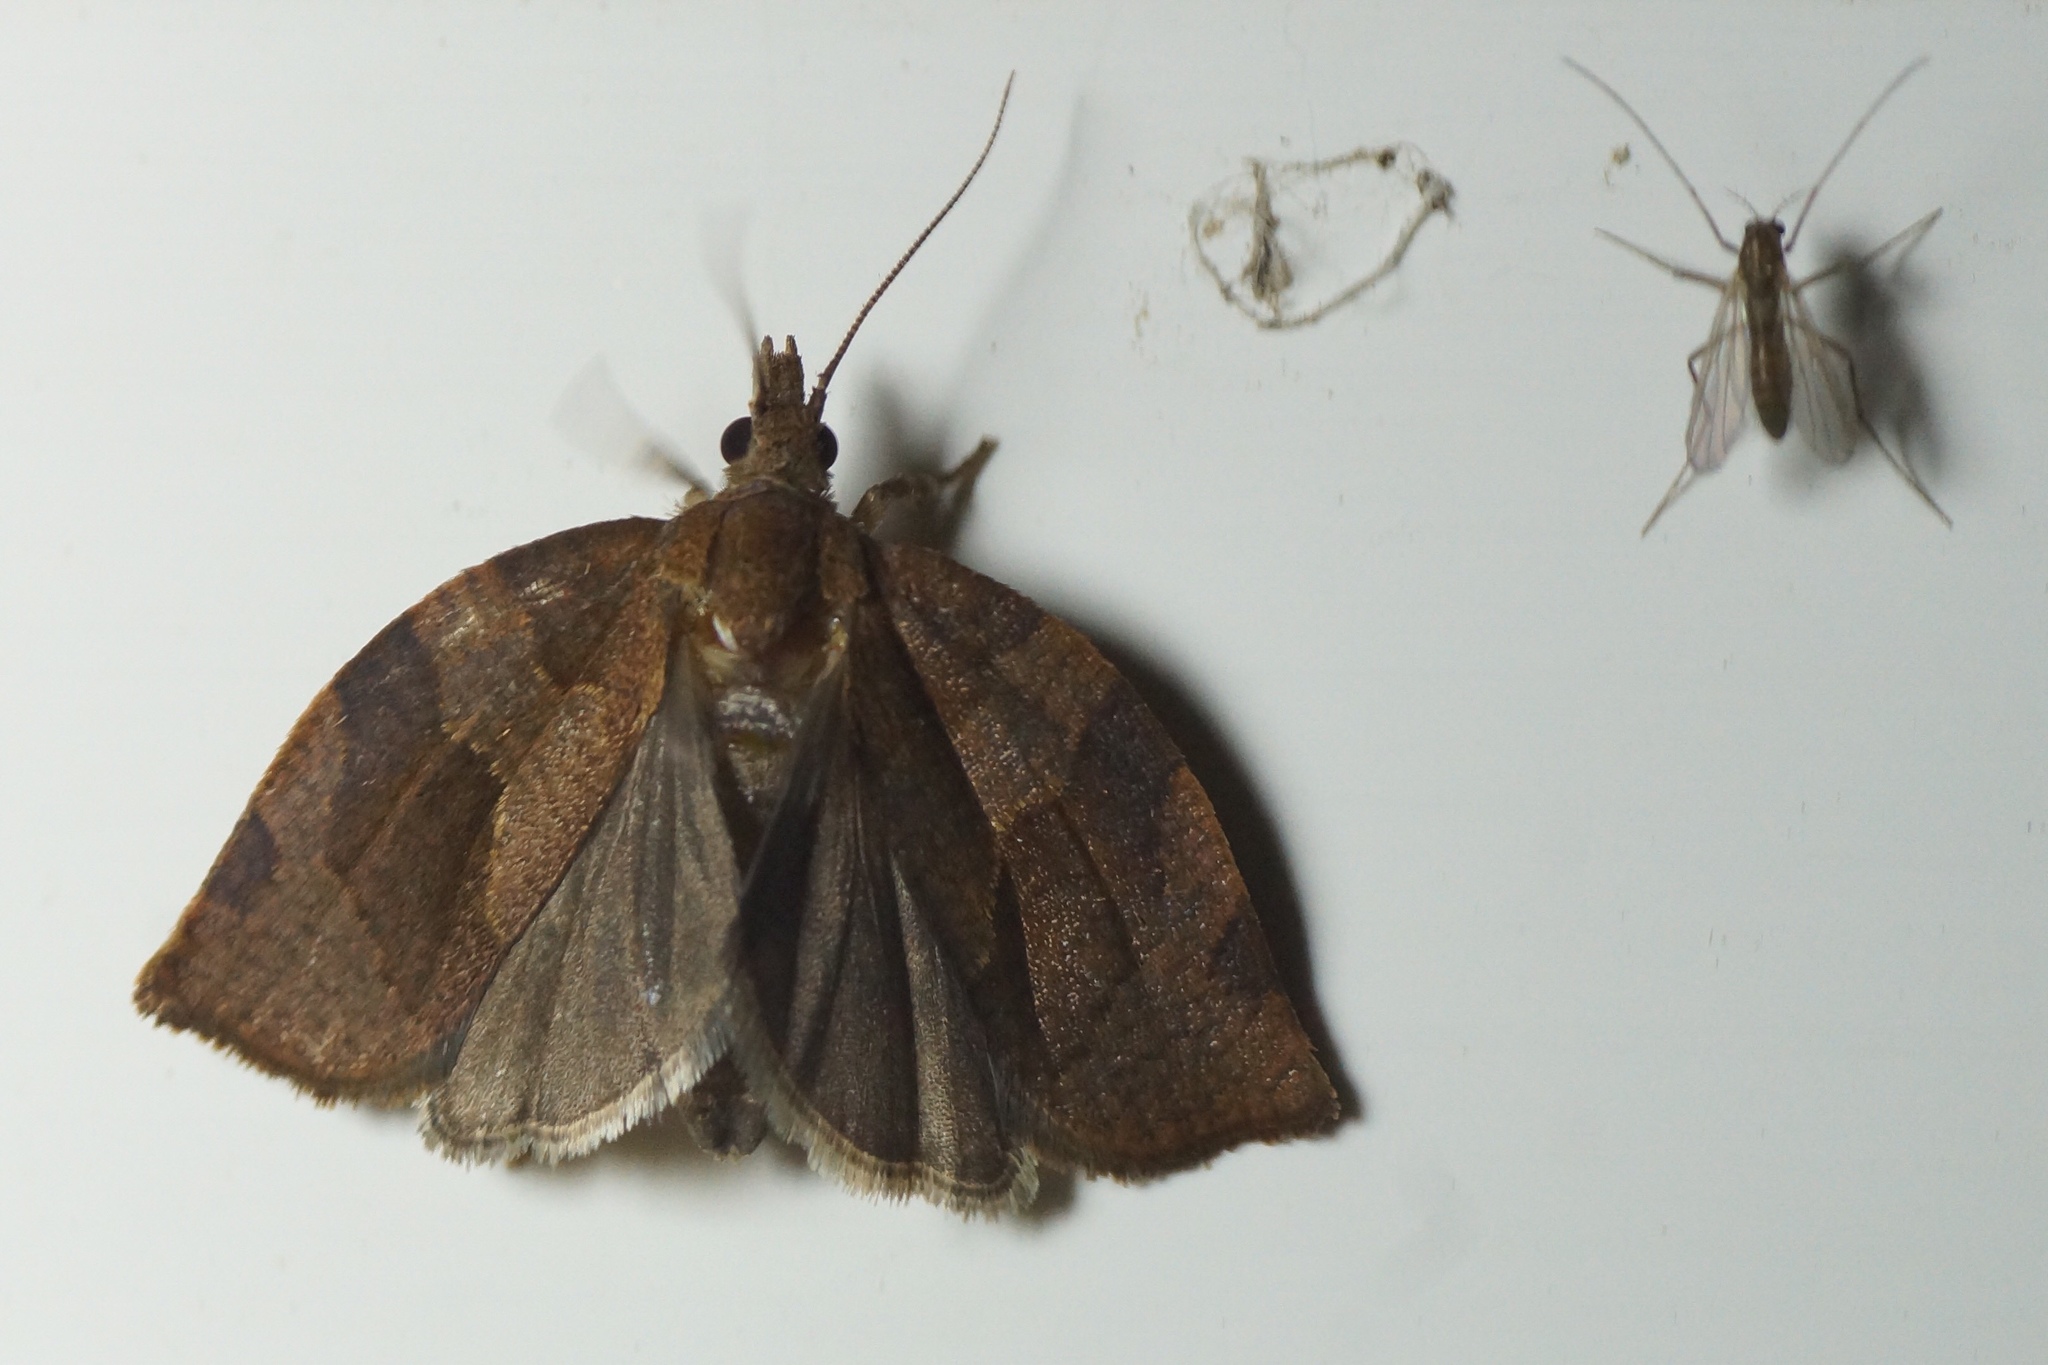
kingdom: Animalia
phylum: Arthropoda
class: Insecta
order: Lepidoptera
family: Tortricidae
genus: Pandemis
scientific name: Pandemis heparana
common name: Dark fruit-tree tortrix
